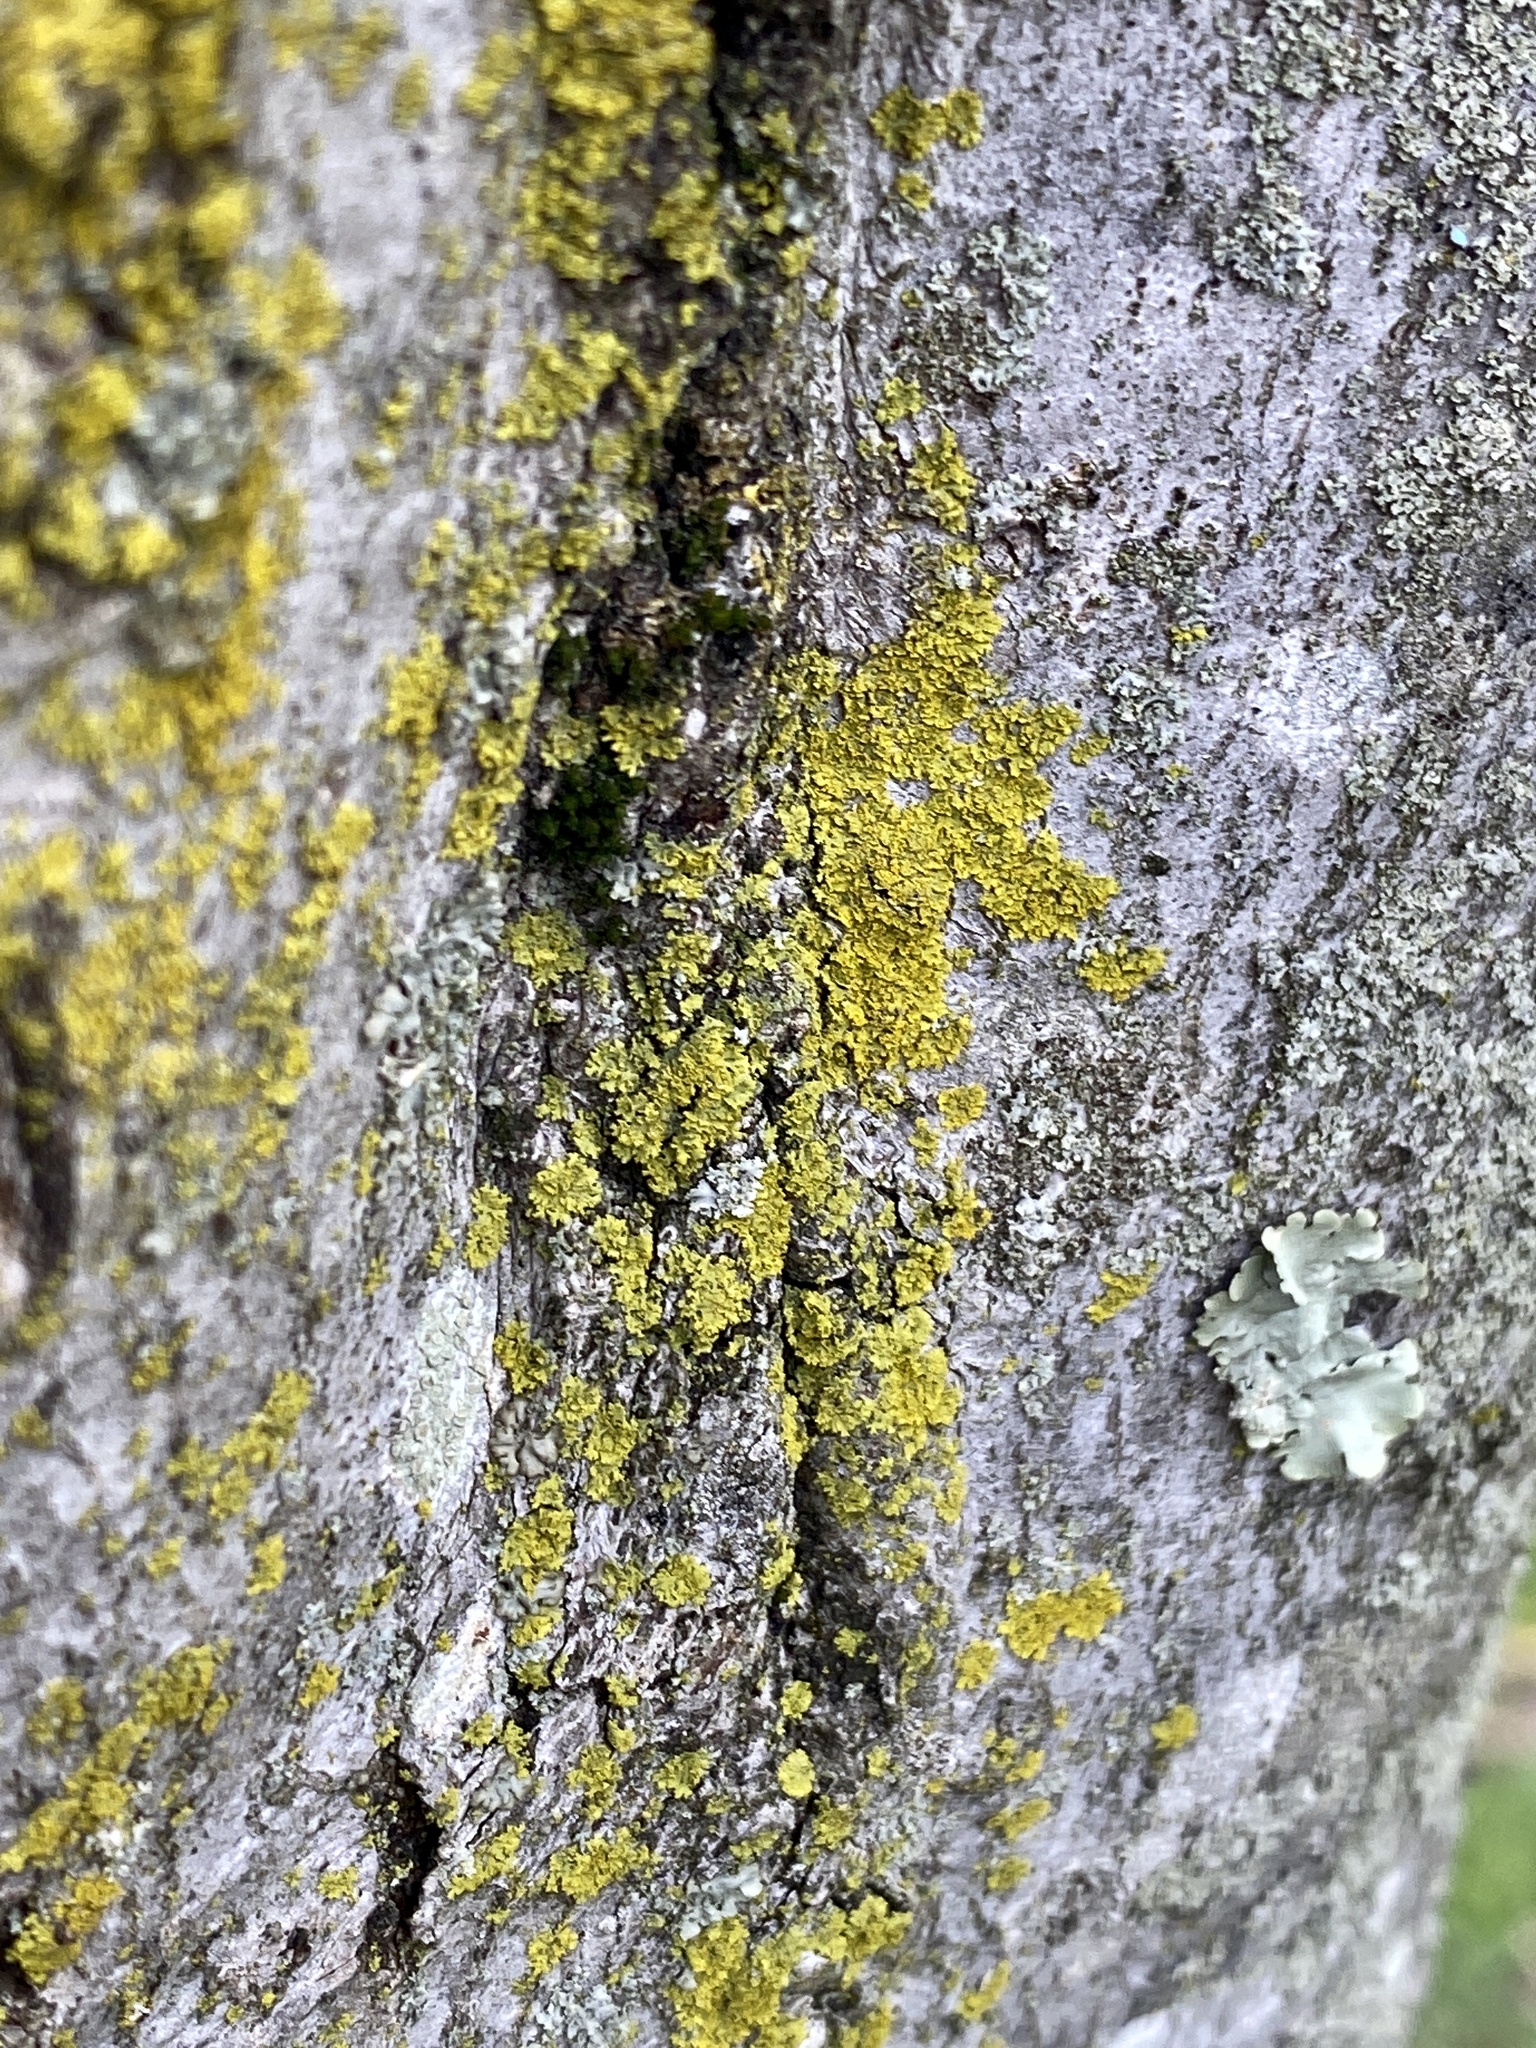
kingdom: Fungi
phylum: Ascomycota
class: Candelariomycetes
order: Candelariales
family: Candelariaceae
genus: Candelaria
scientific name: Candelaria concolor
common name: Candleflame lichen
